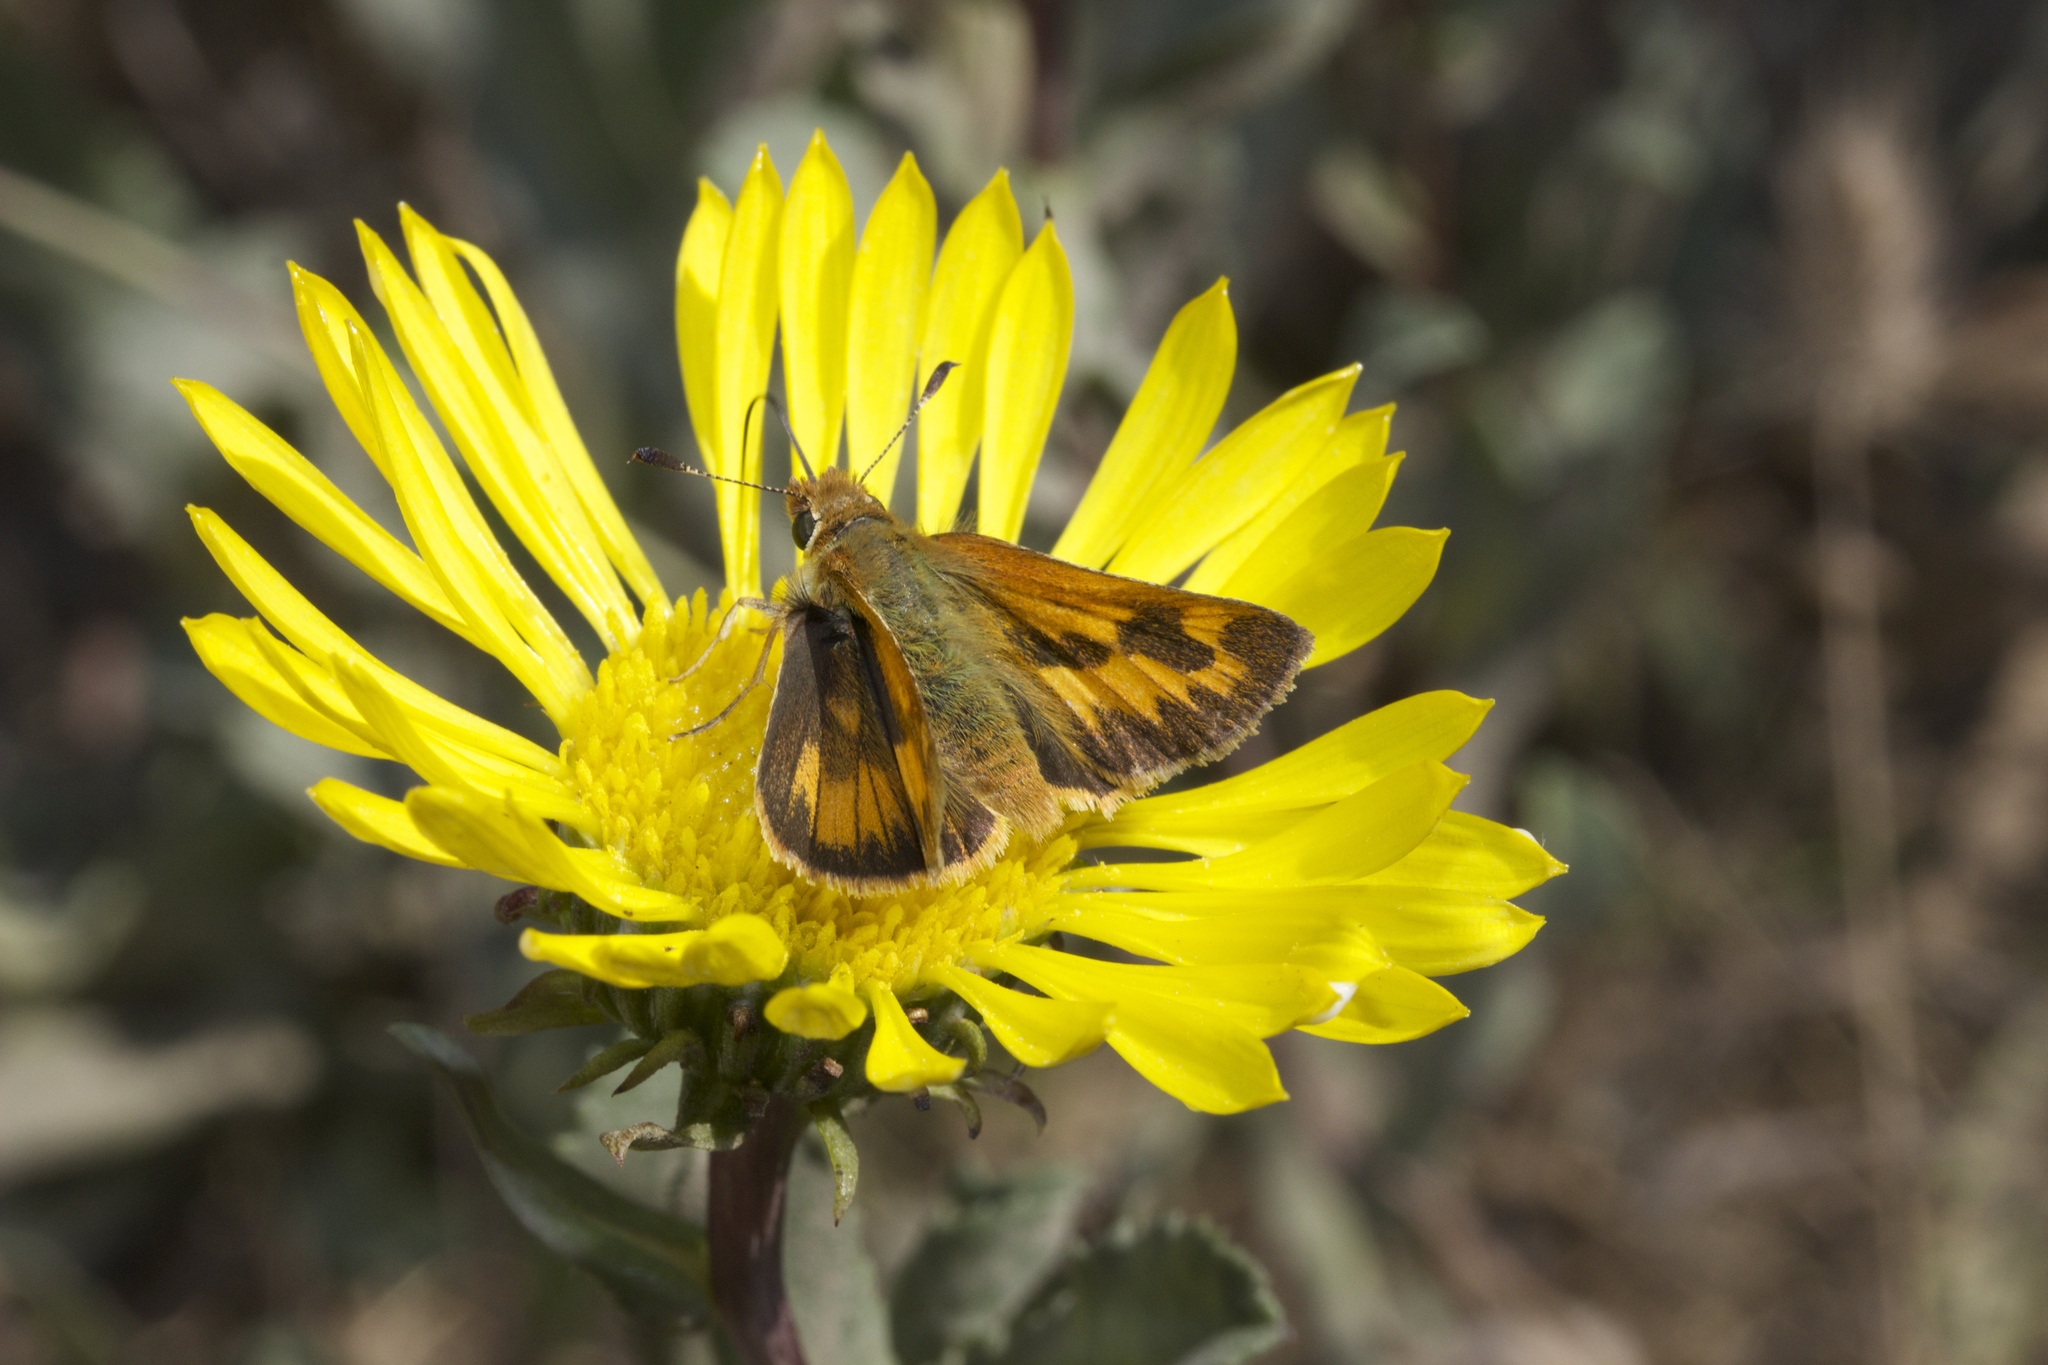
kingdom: Animalia
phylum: Arthropoda
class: Insecta
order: Lepidoptera
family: Hesperiidae
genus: Ochlodes
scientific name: Ochlodes sylvanoides
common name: Woodland skipper
